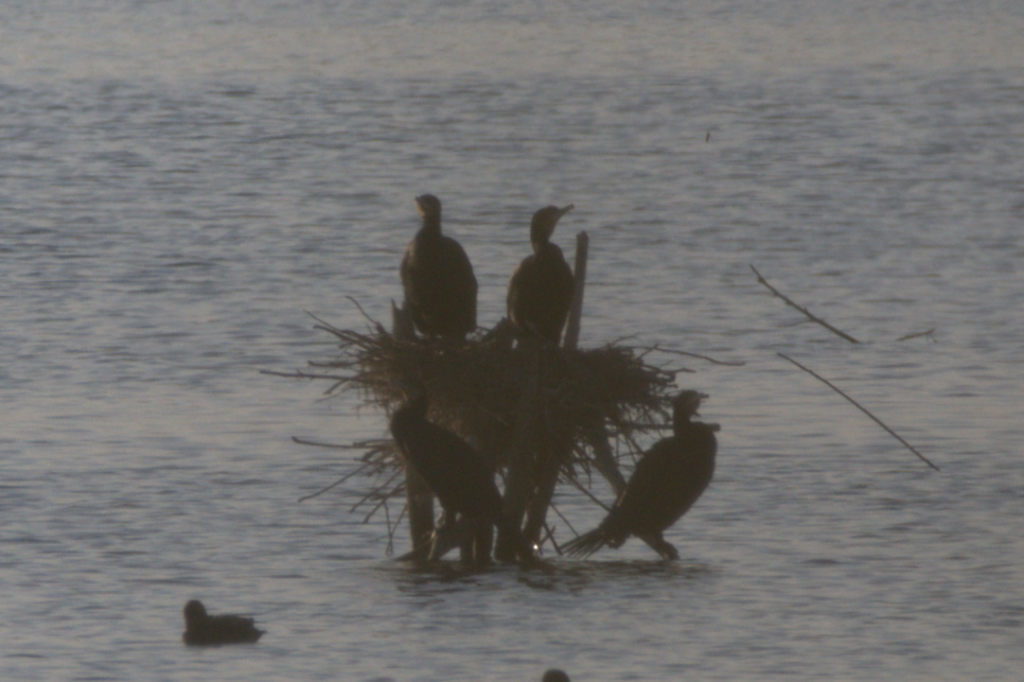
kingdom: Animalia
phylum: Chordata
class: Aves
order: Suliformes
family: Phalacrocoracidae
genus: Phalacrocorax
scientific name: Phalacrocorax carbo
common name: Great cormorant
